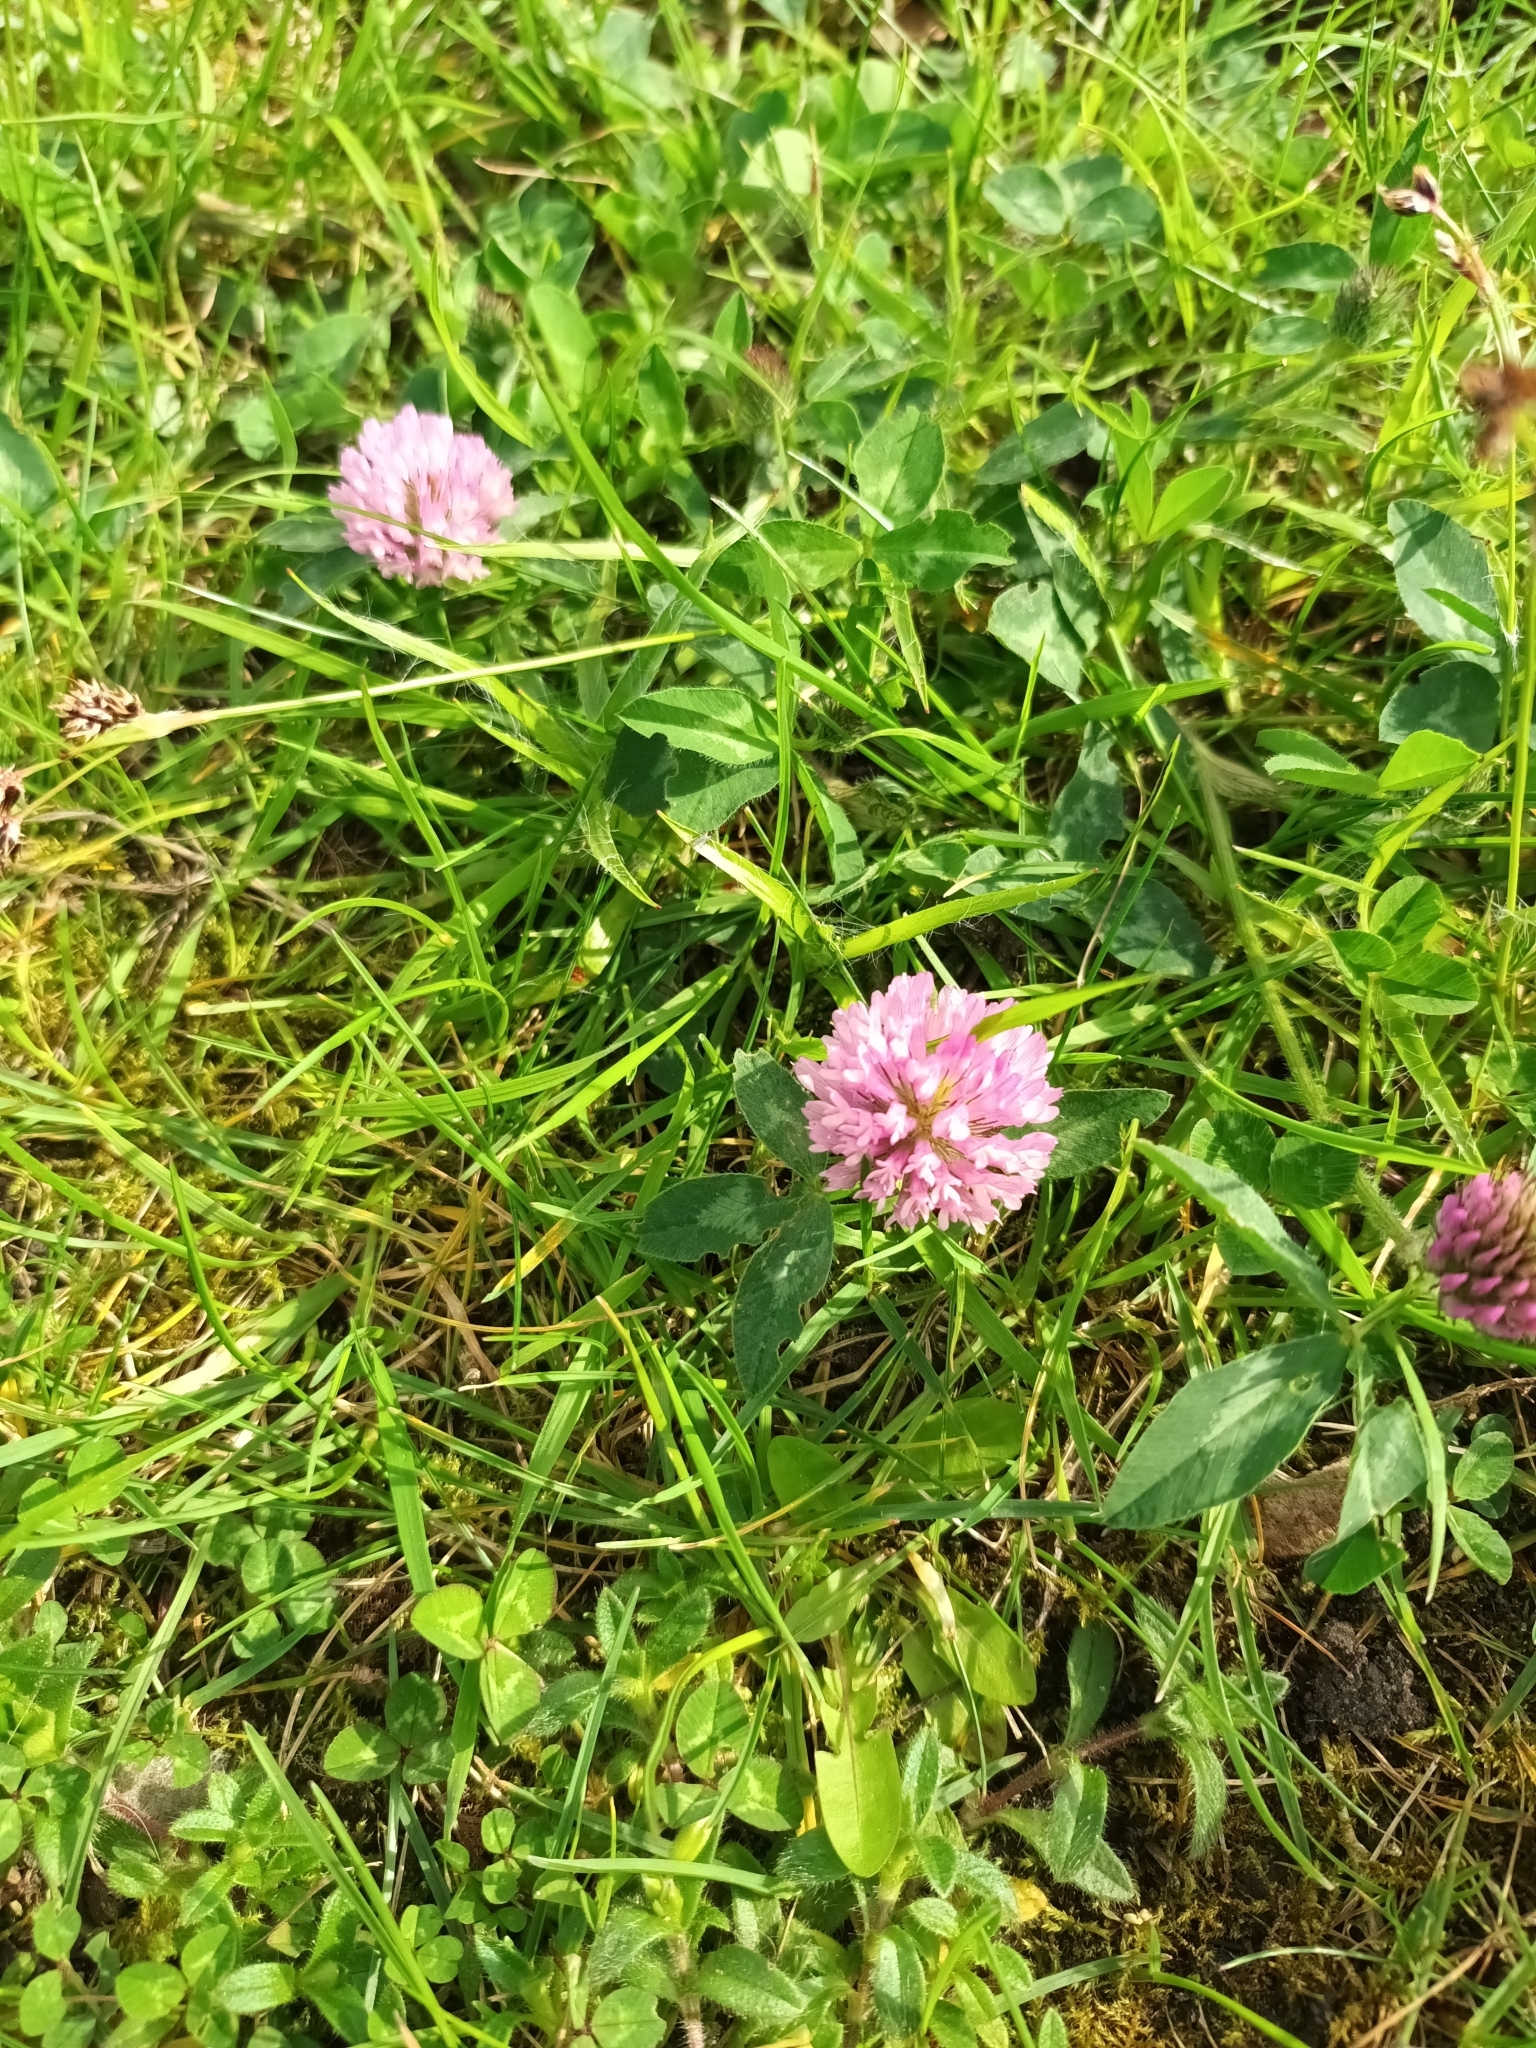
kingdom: Plantae
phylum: Tracheophyta
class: Magnoliopsida
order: Fabales
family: Fabaceae
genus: Trifolium
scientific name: Trifolium pratense
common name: Red clover
